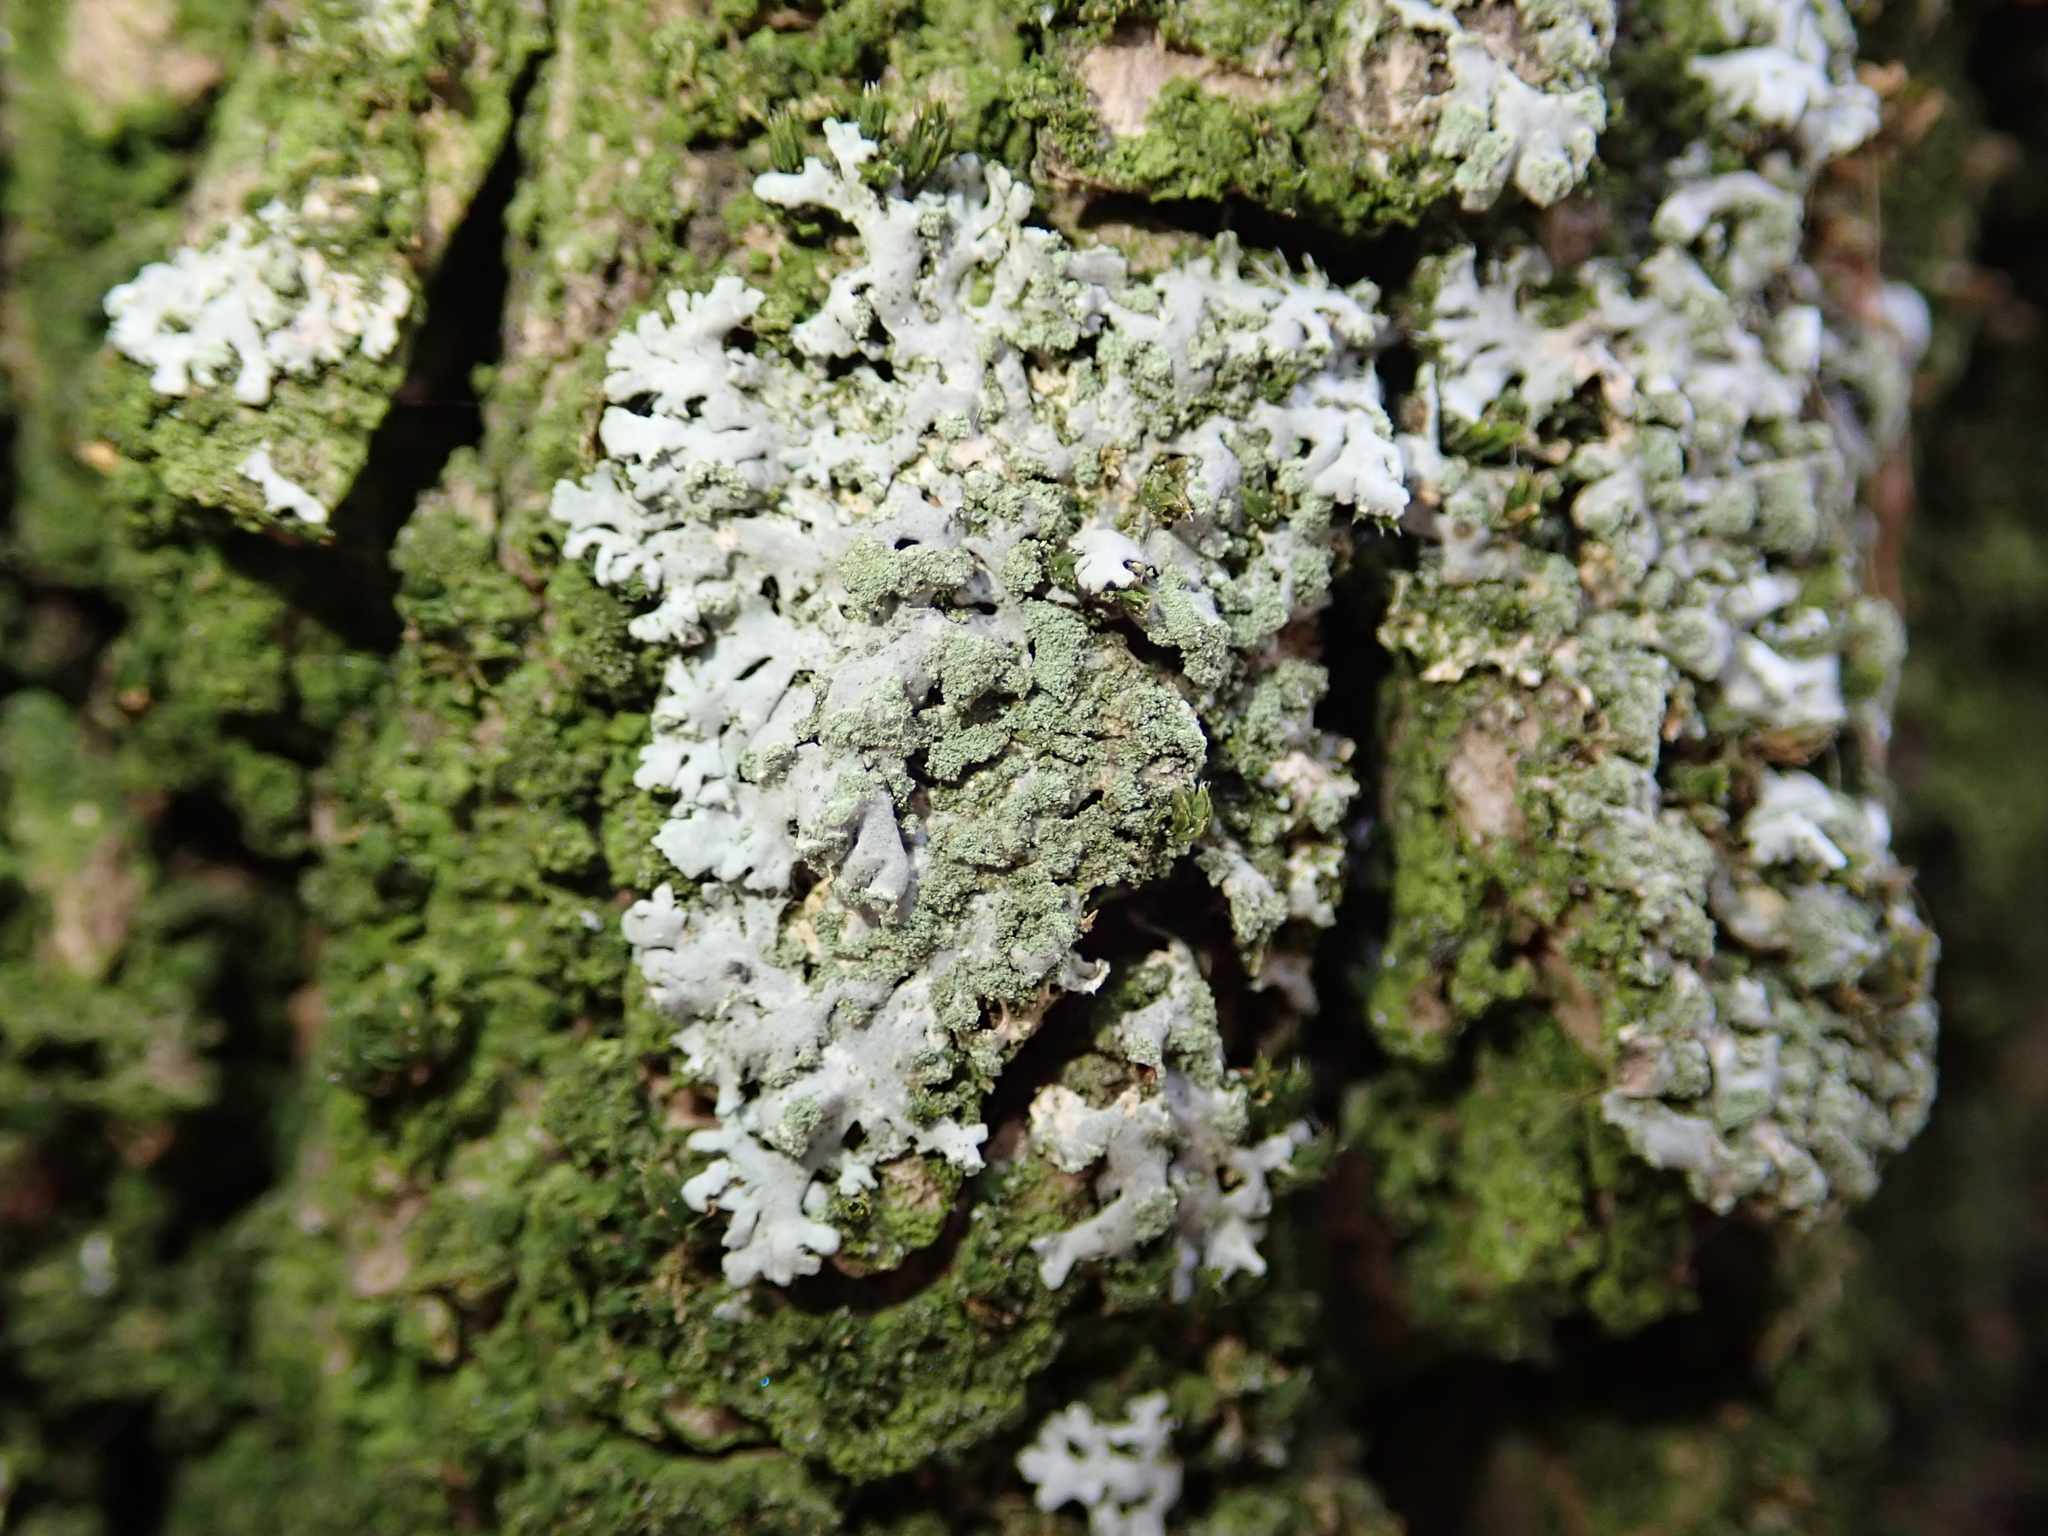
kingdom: Fungi
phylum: Ascomycota
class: Lecanoromycetes
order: Caliciales
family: Physciaceae
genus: Phaeophyscia
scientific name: Phaeophyscia orbicularis
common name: Mealy shadow lichen
